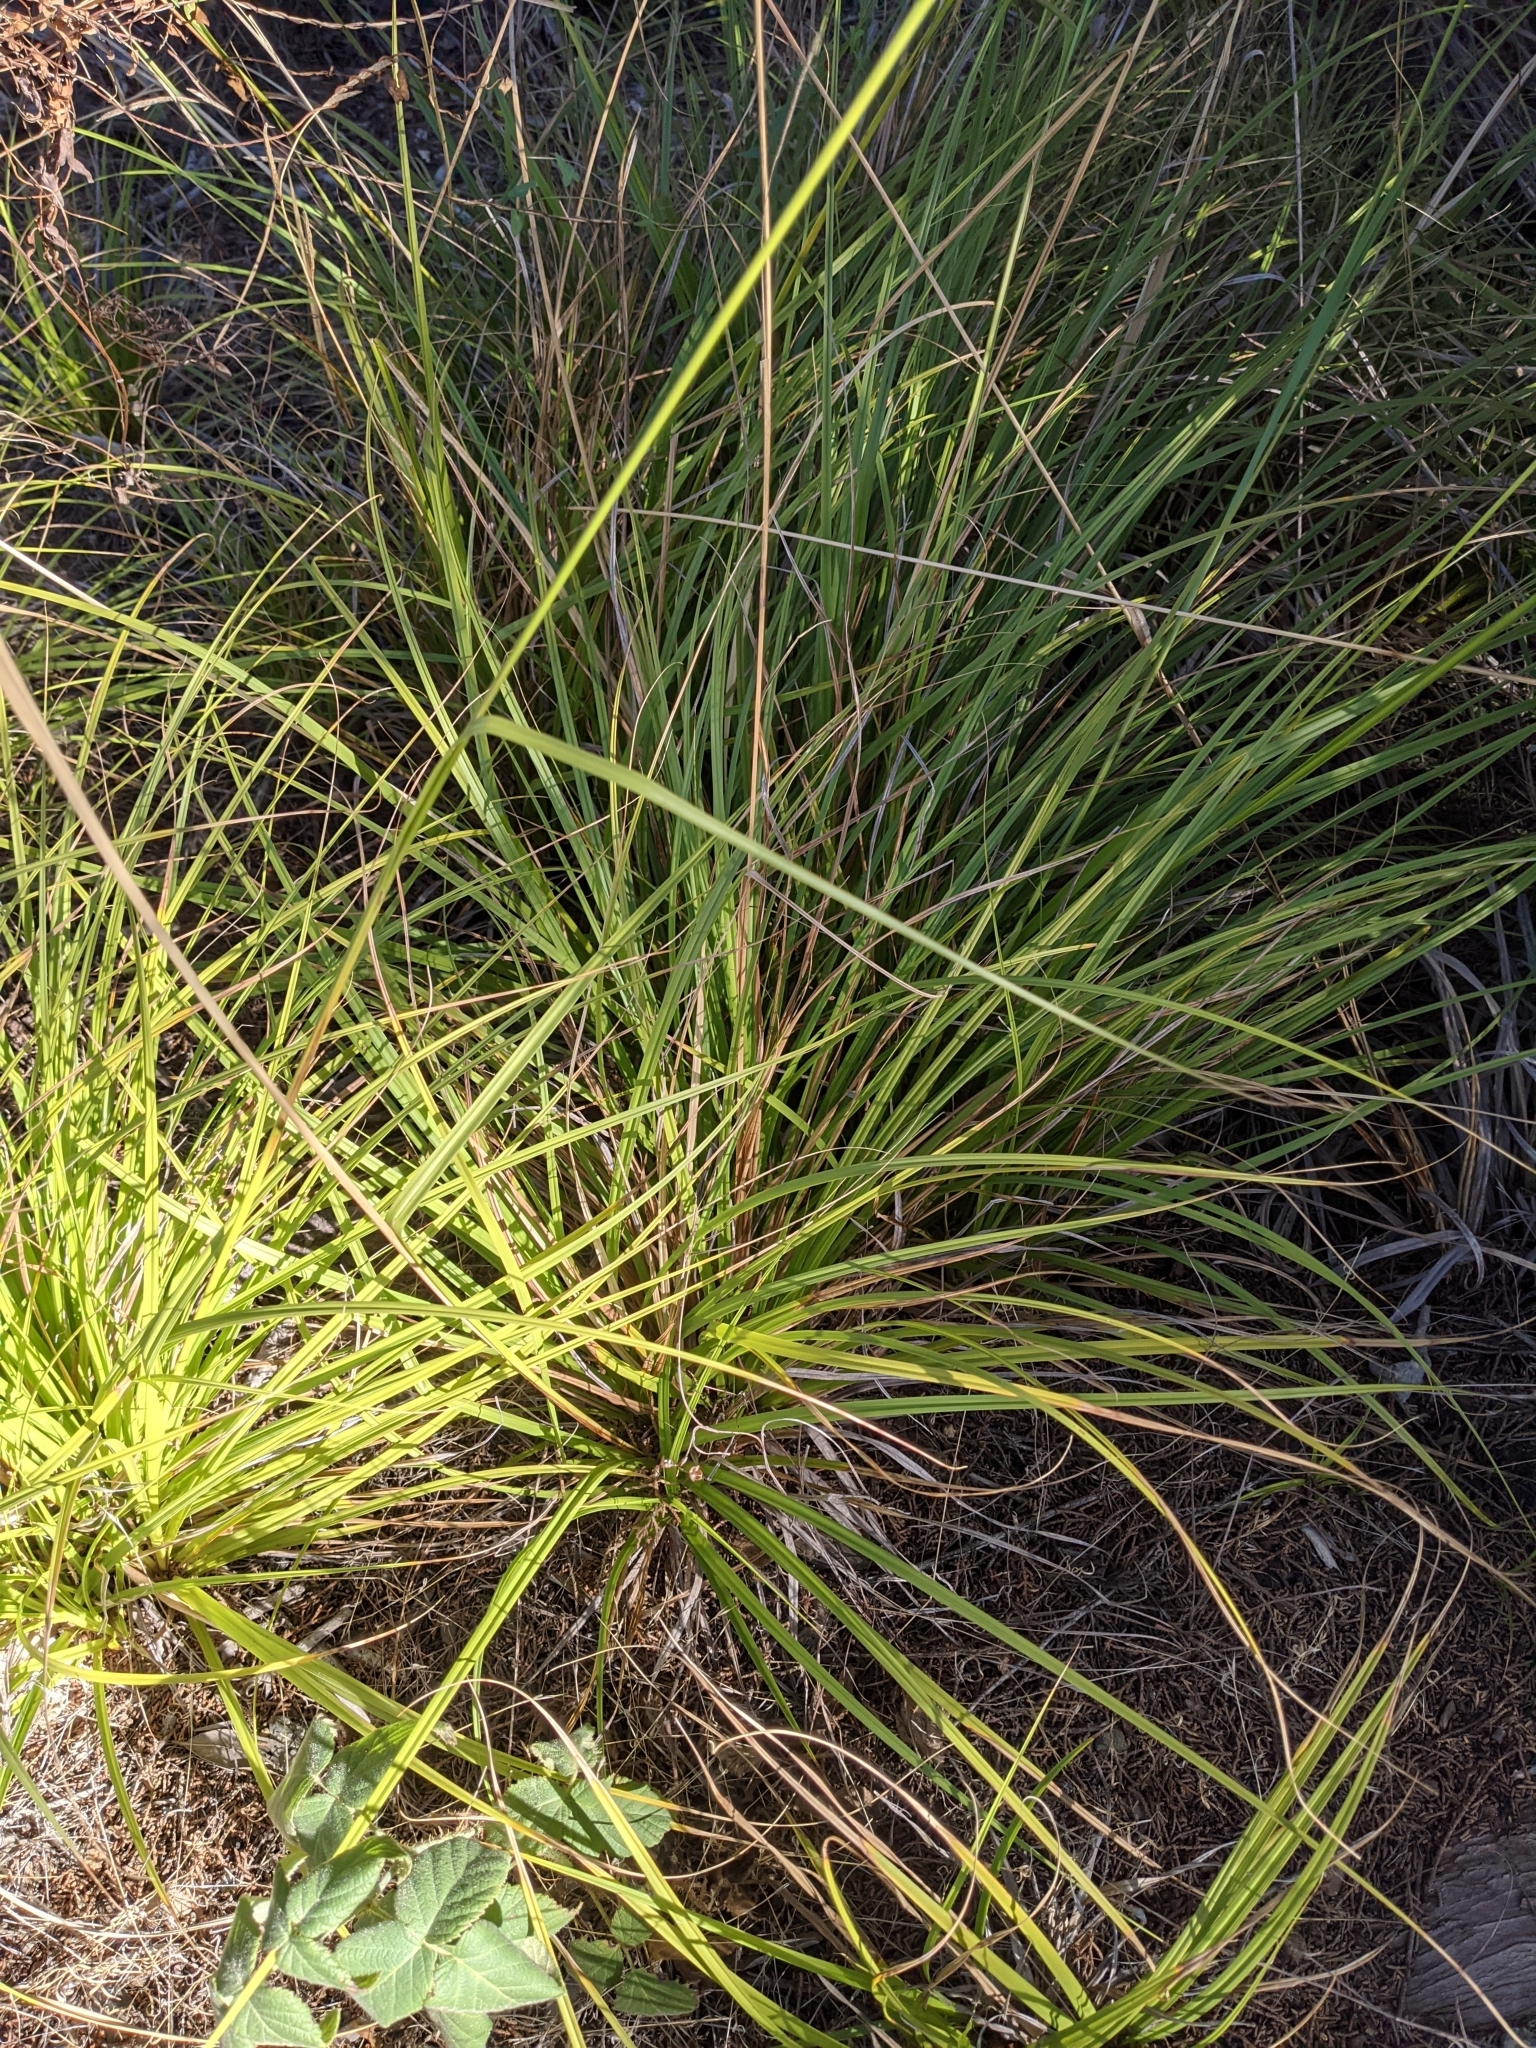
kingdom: Plantae
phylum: Tracheophyta
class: Liliopsida
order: Poales
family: Cyperaceae
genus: Carex
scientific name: Carex obispoensis
